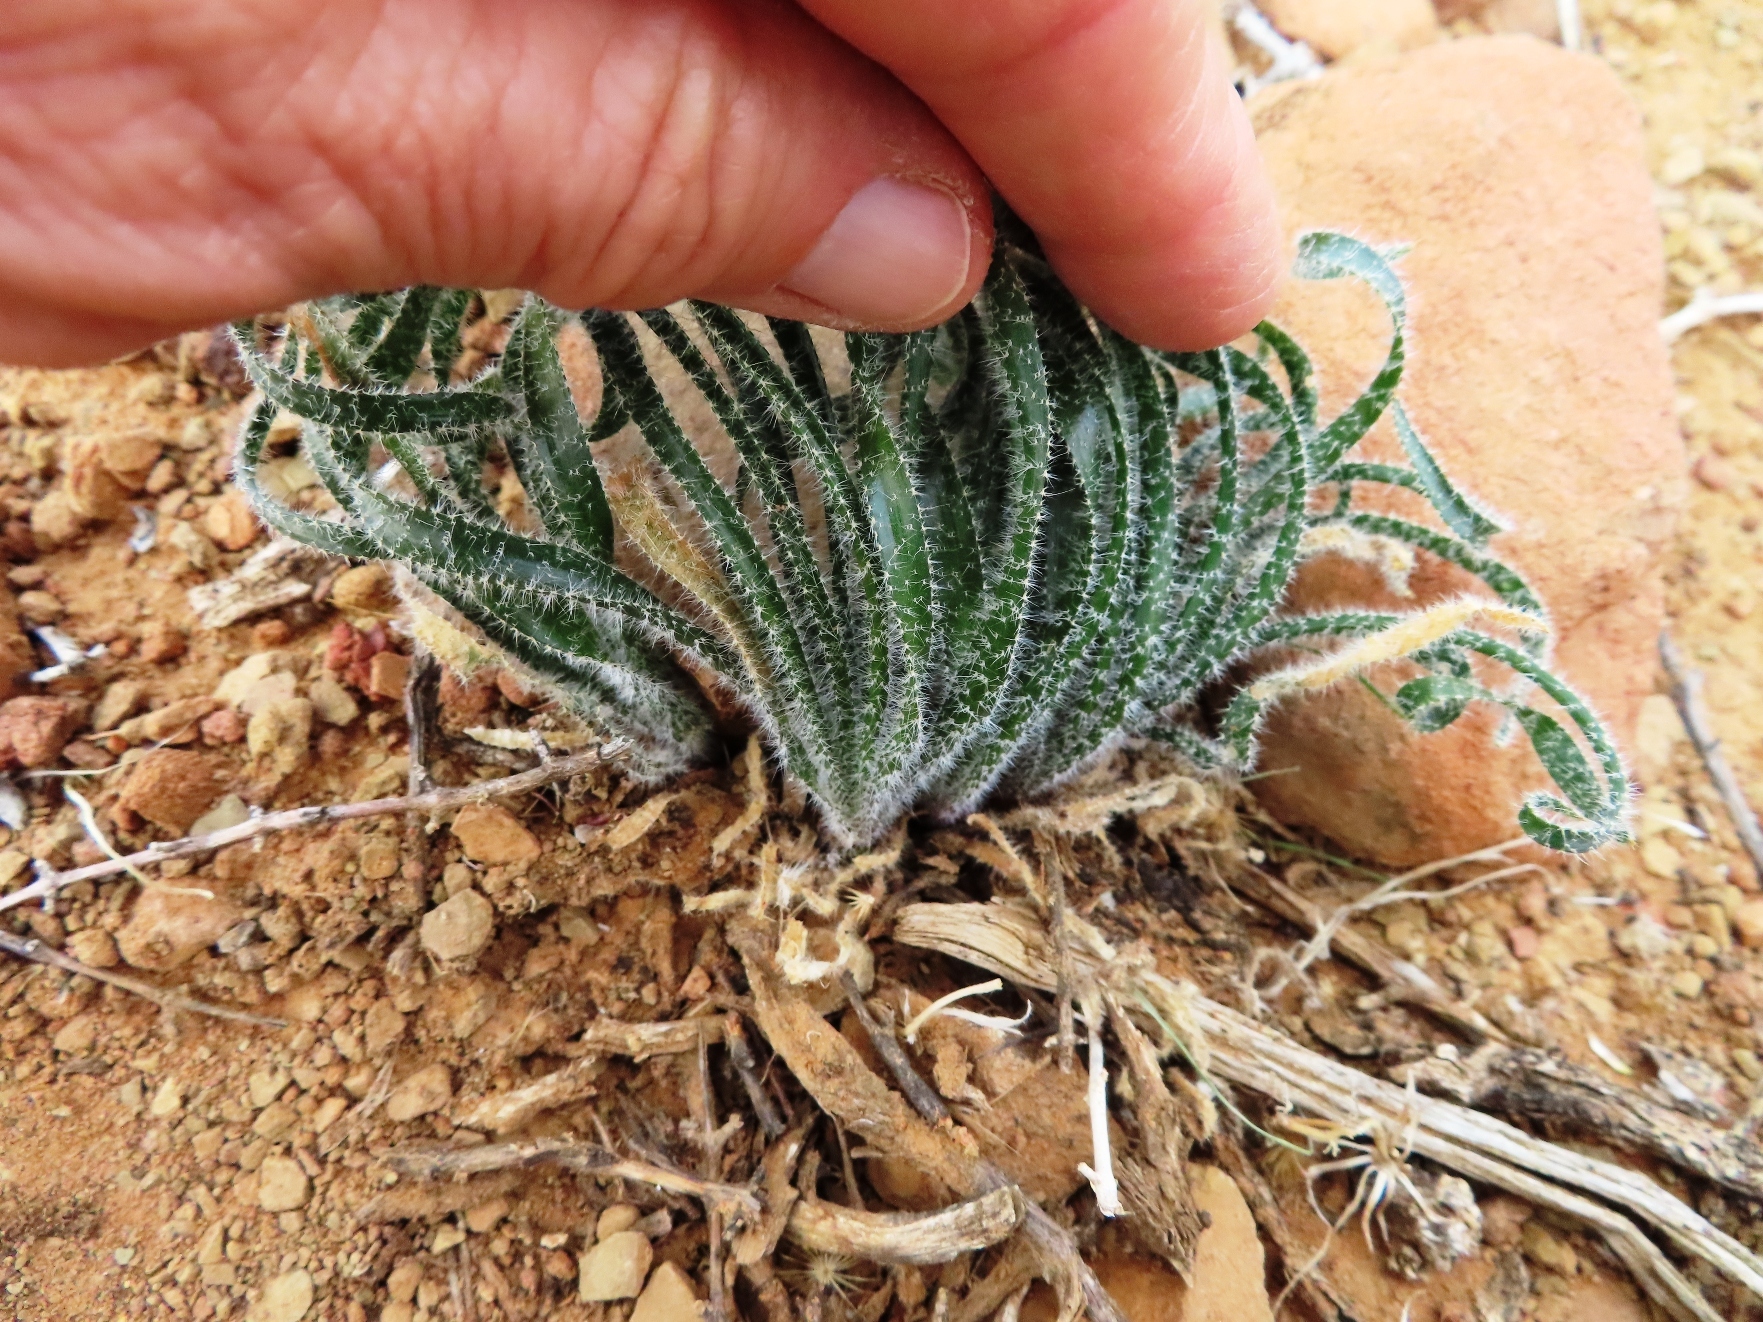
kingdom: Plantae
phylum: Tracheophyta
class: Liliopsida
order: Asparagales
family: Amaryllidaceae
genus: Gethyllis
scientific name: Gethyllis villosa
